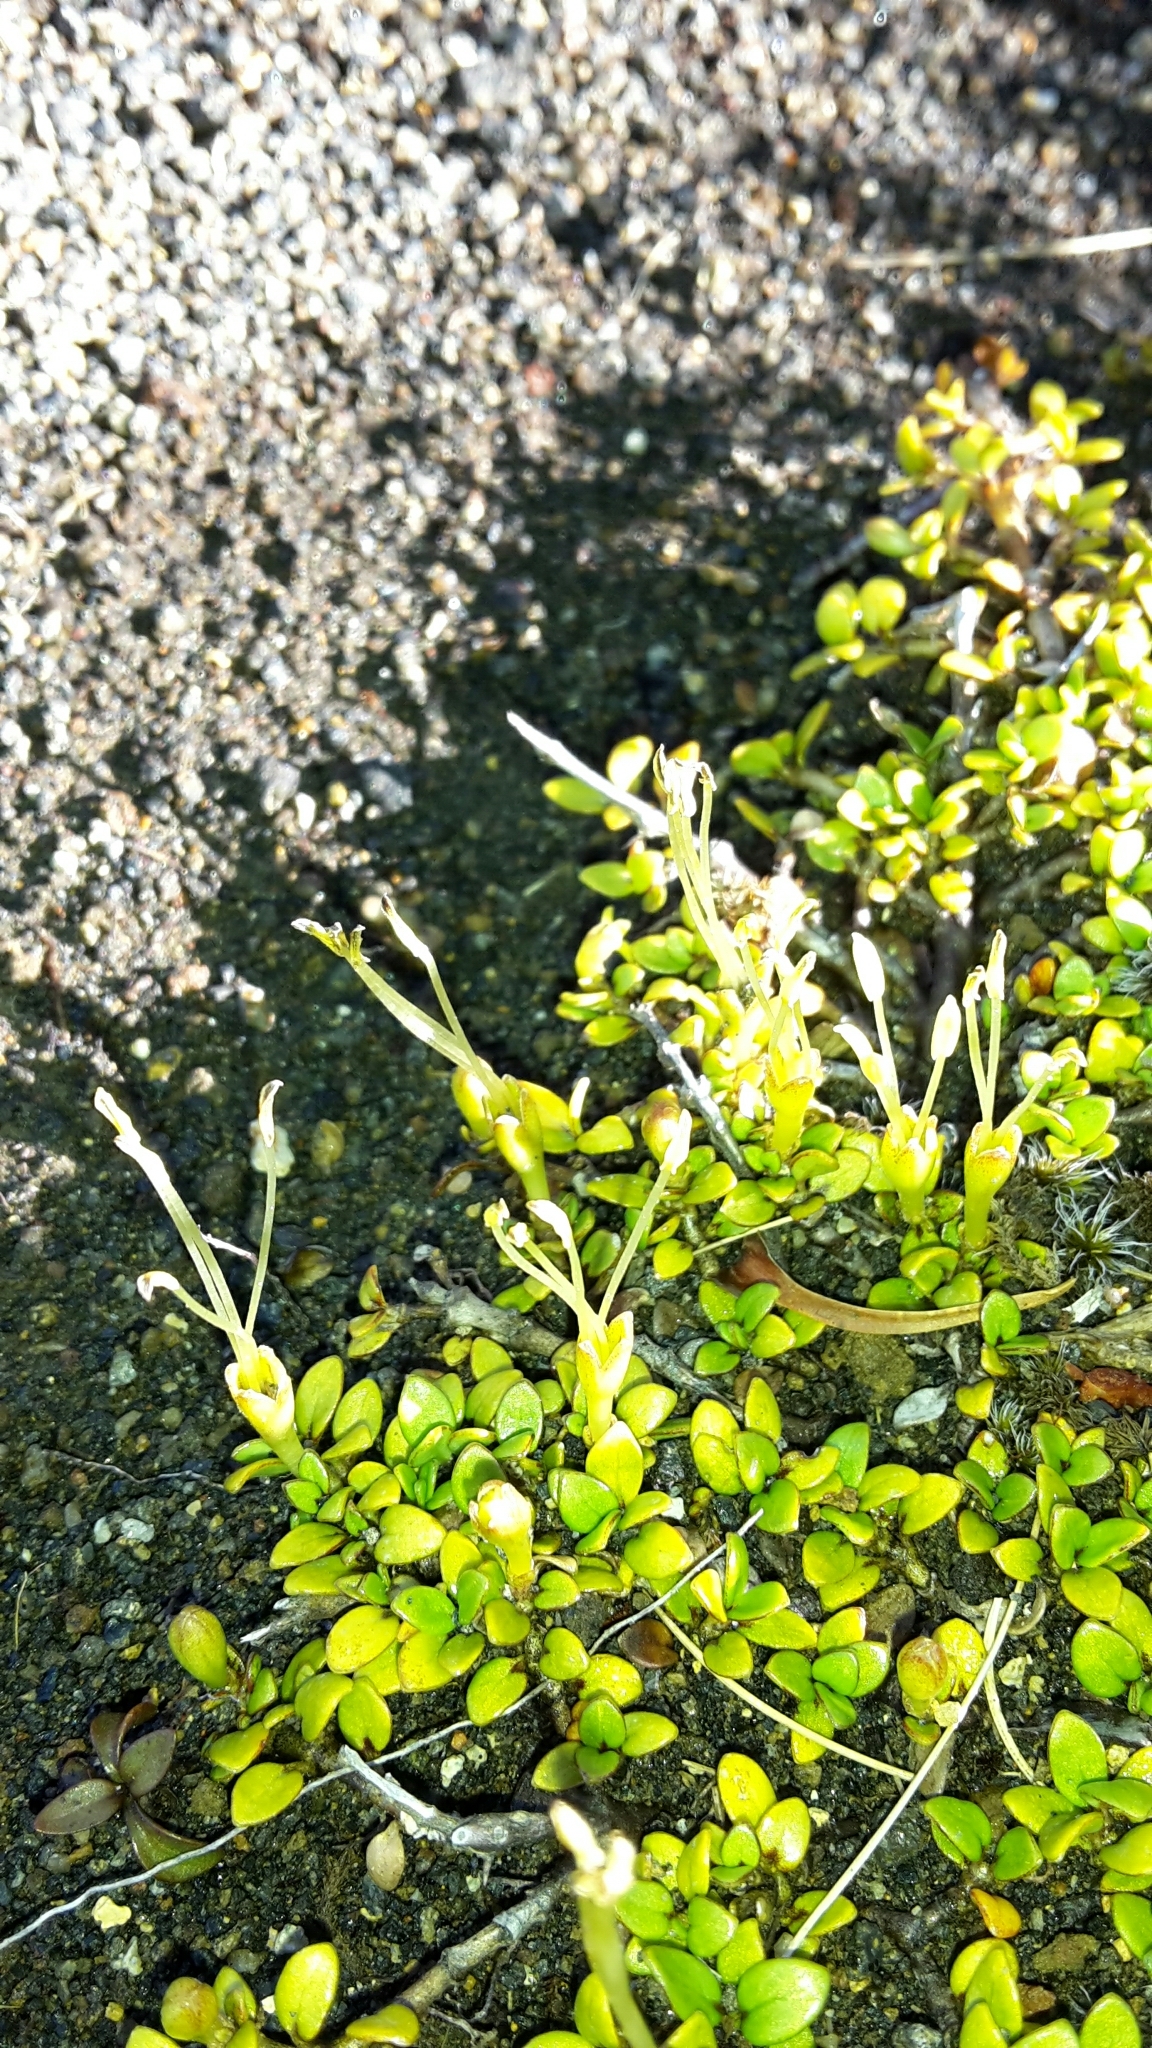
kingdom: Plantae
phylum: Tracheophyta
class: Magnoliopsida
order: Gentianales
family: Rubiaceae
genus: Coprosma
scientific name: Coprosma perpusilla
